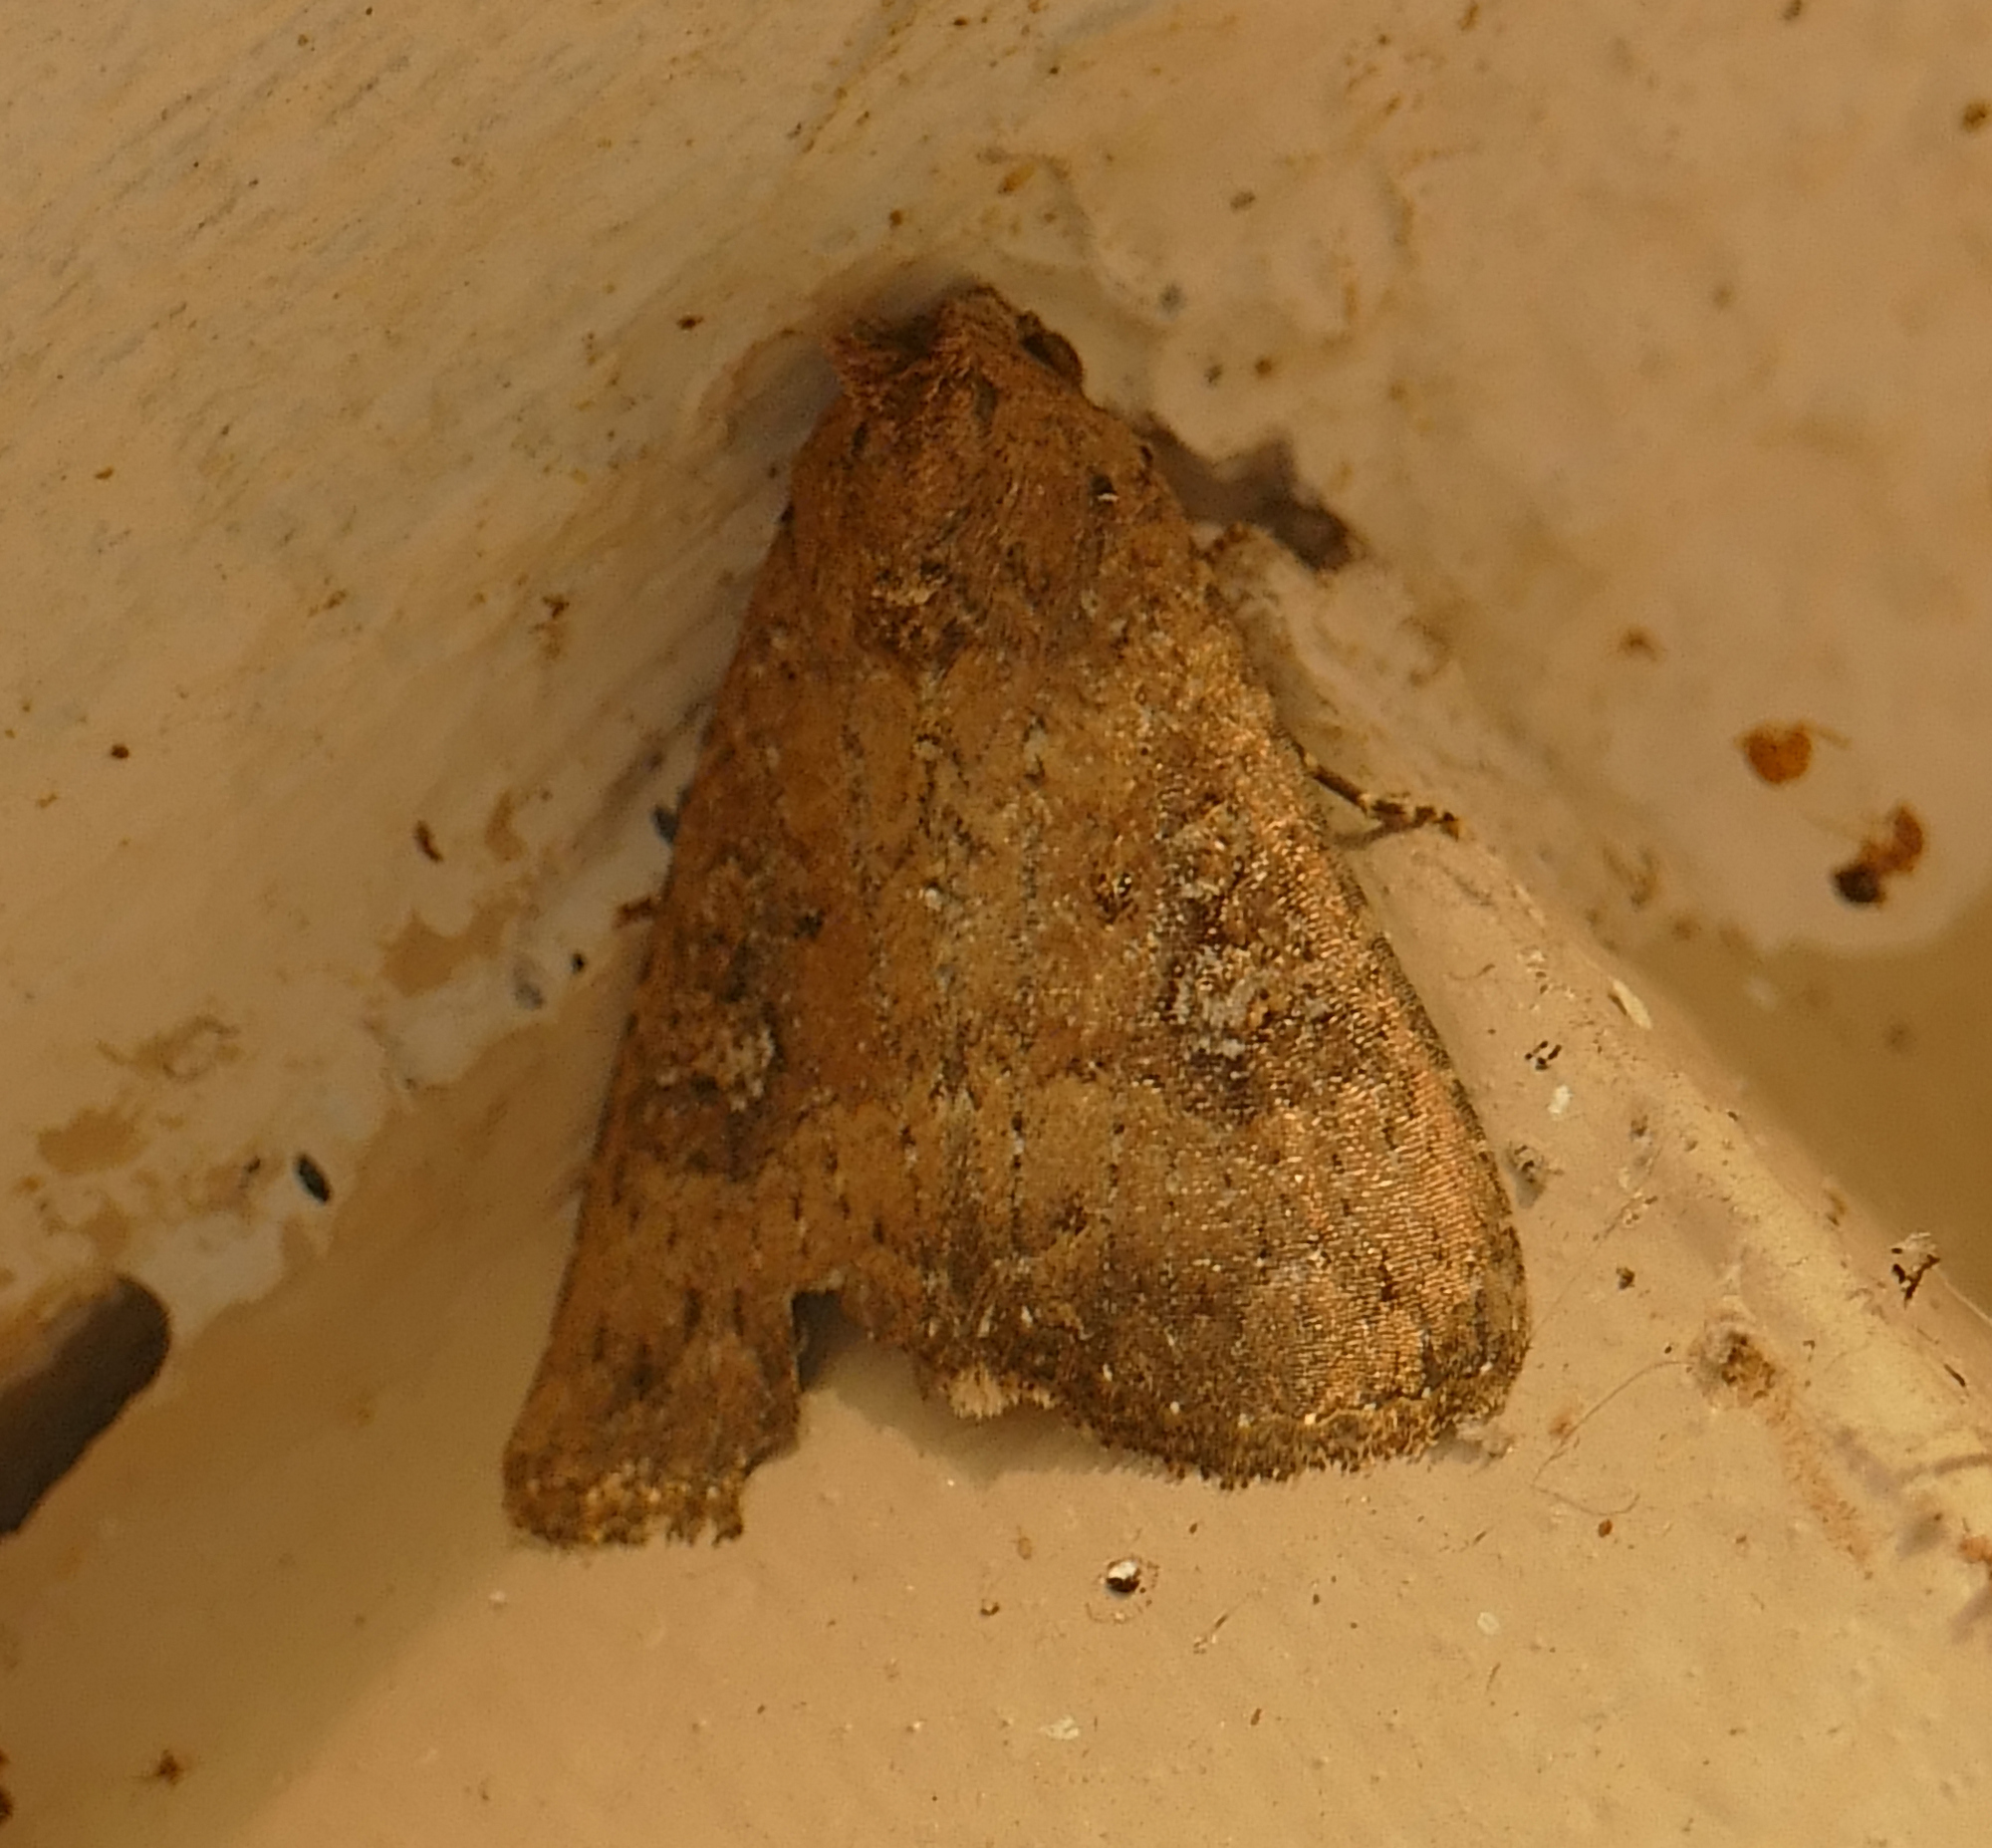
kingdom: Animalia
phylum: Arthropoda
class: Insecta
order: Lepidoptera
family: Noctuidae
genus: Condica
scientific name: Condica sutor
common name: Cobbler moth
